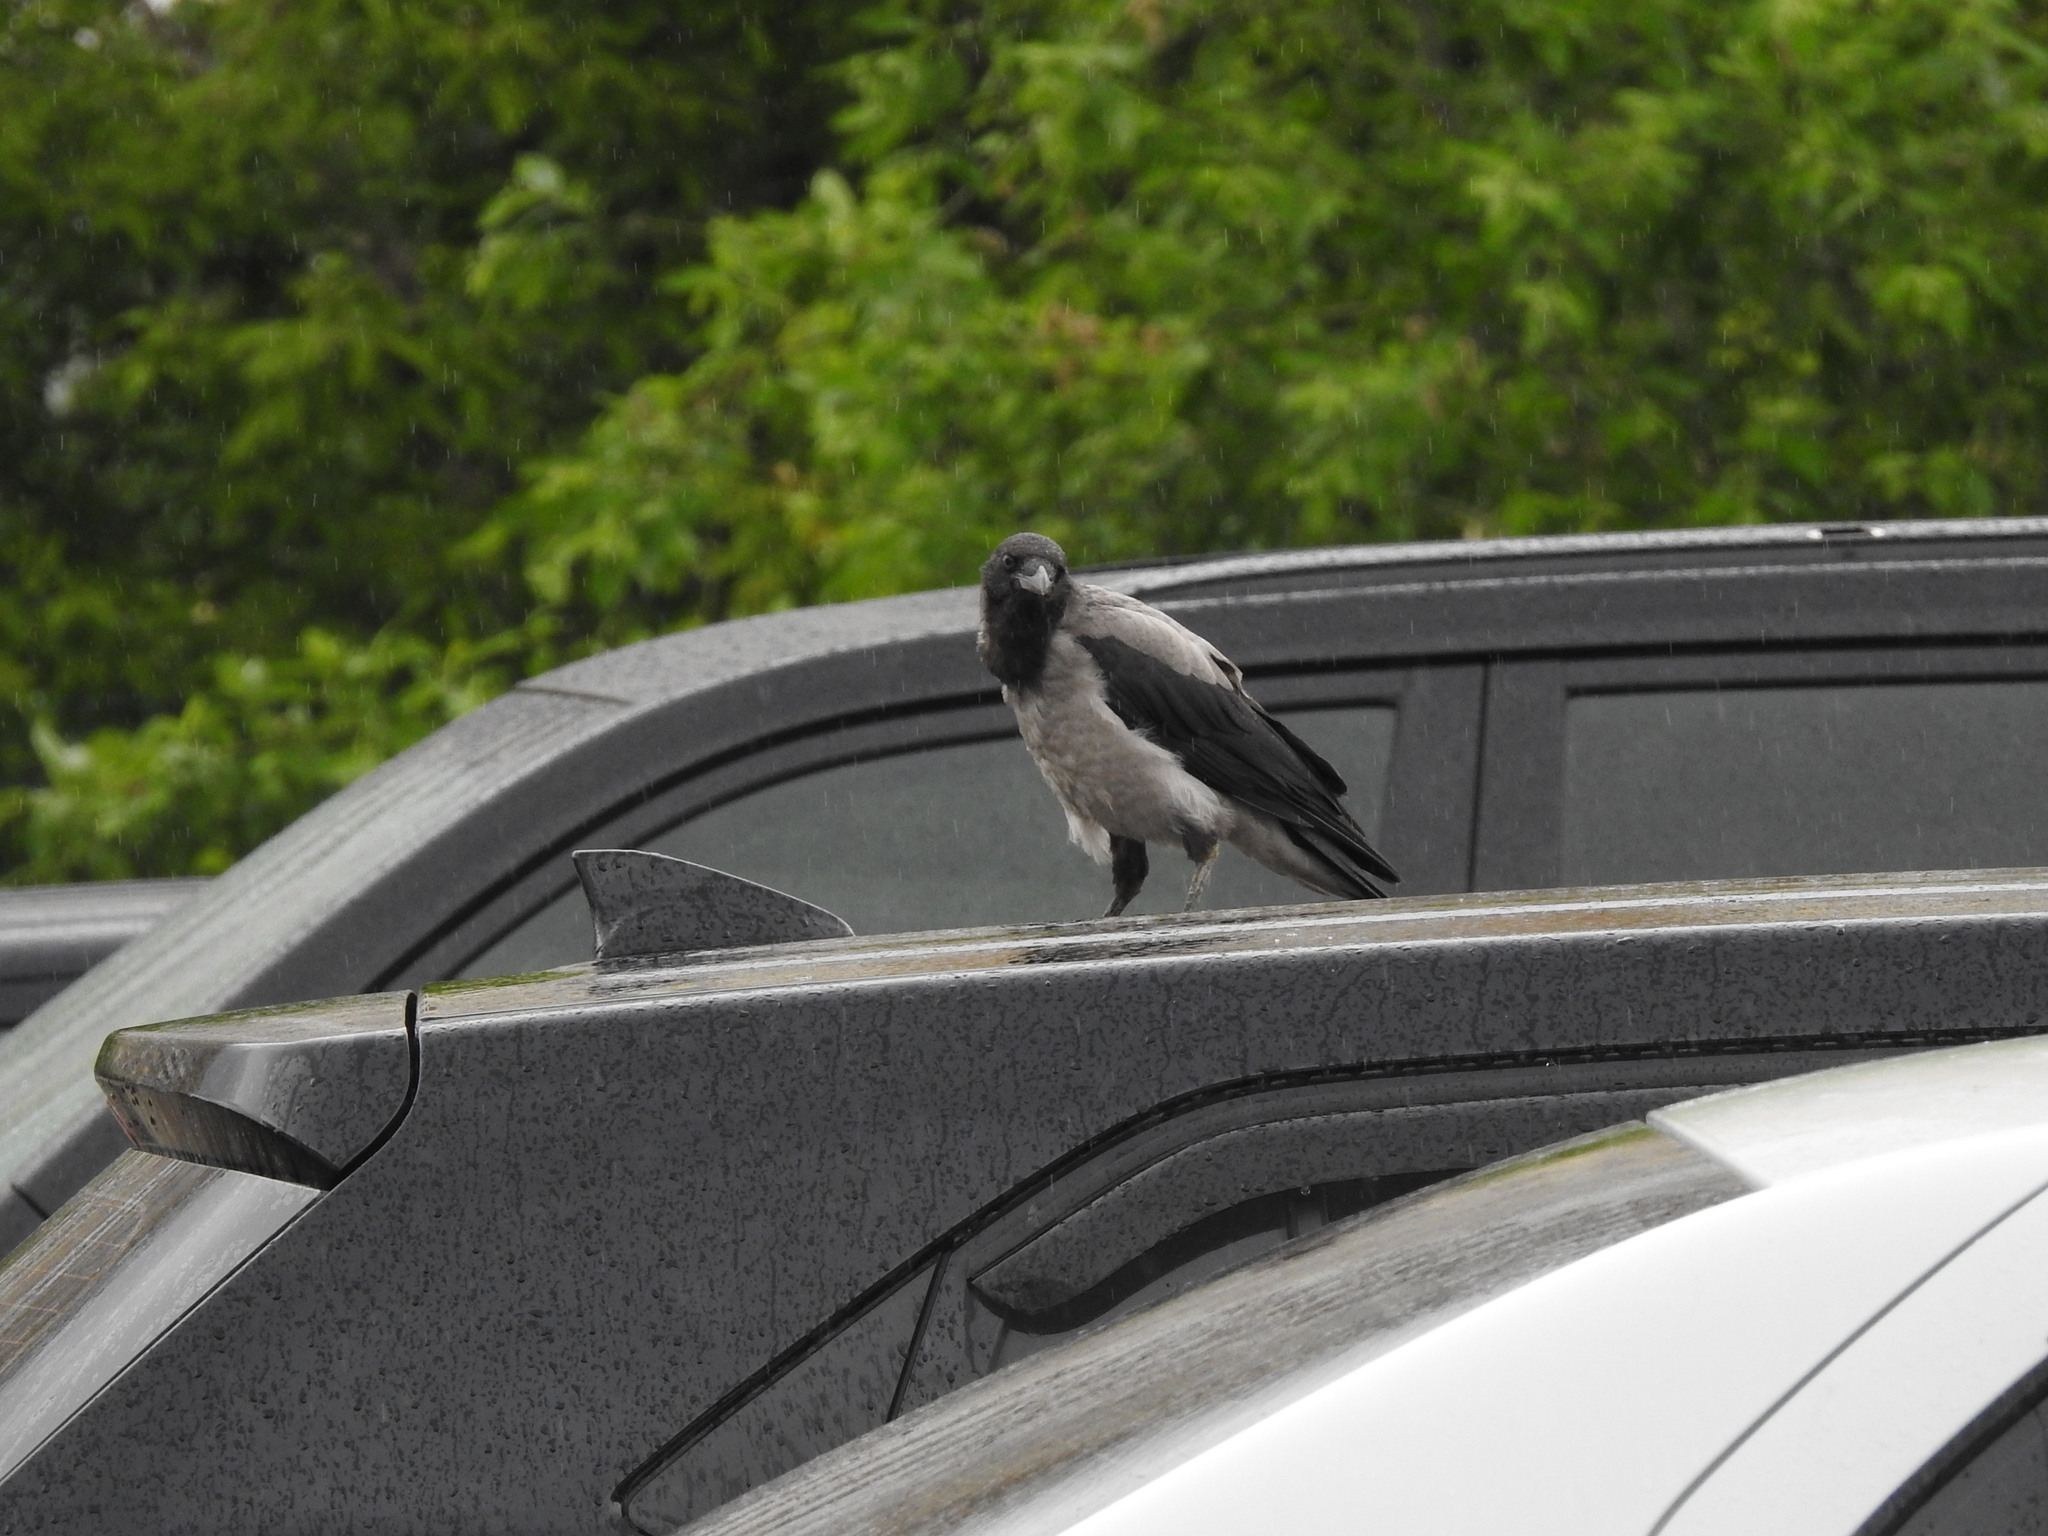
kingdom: Animalia
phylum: Chordata
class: Aves
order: Passeriformes
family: Corvidae
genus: Corvus
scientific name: Corvus cornix
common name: Hooded crow
